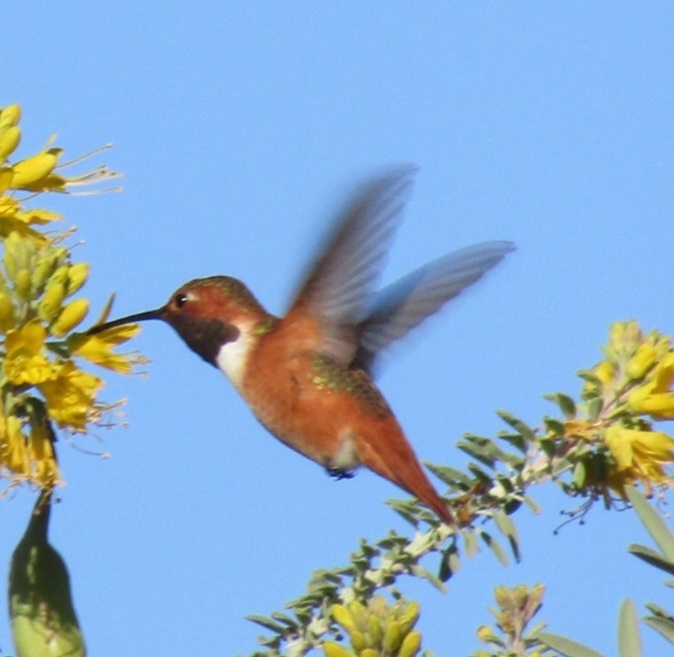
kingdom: Animalia
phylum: Chordata
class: Aves
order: Apodiformes
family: Trochilidae
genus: Selasphorus
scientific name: Selasphorus sasin
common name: Allen's hummingbird
